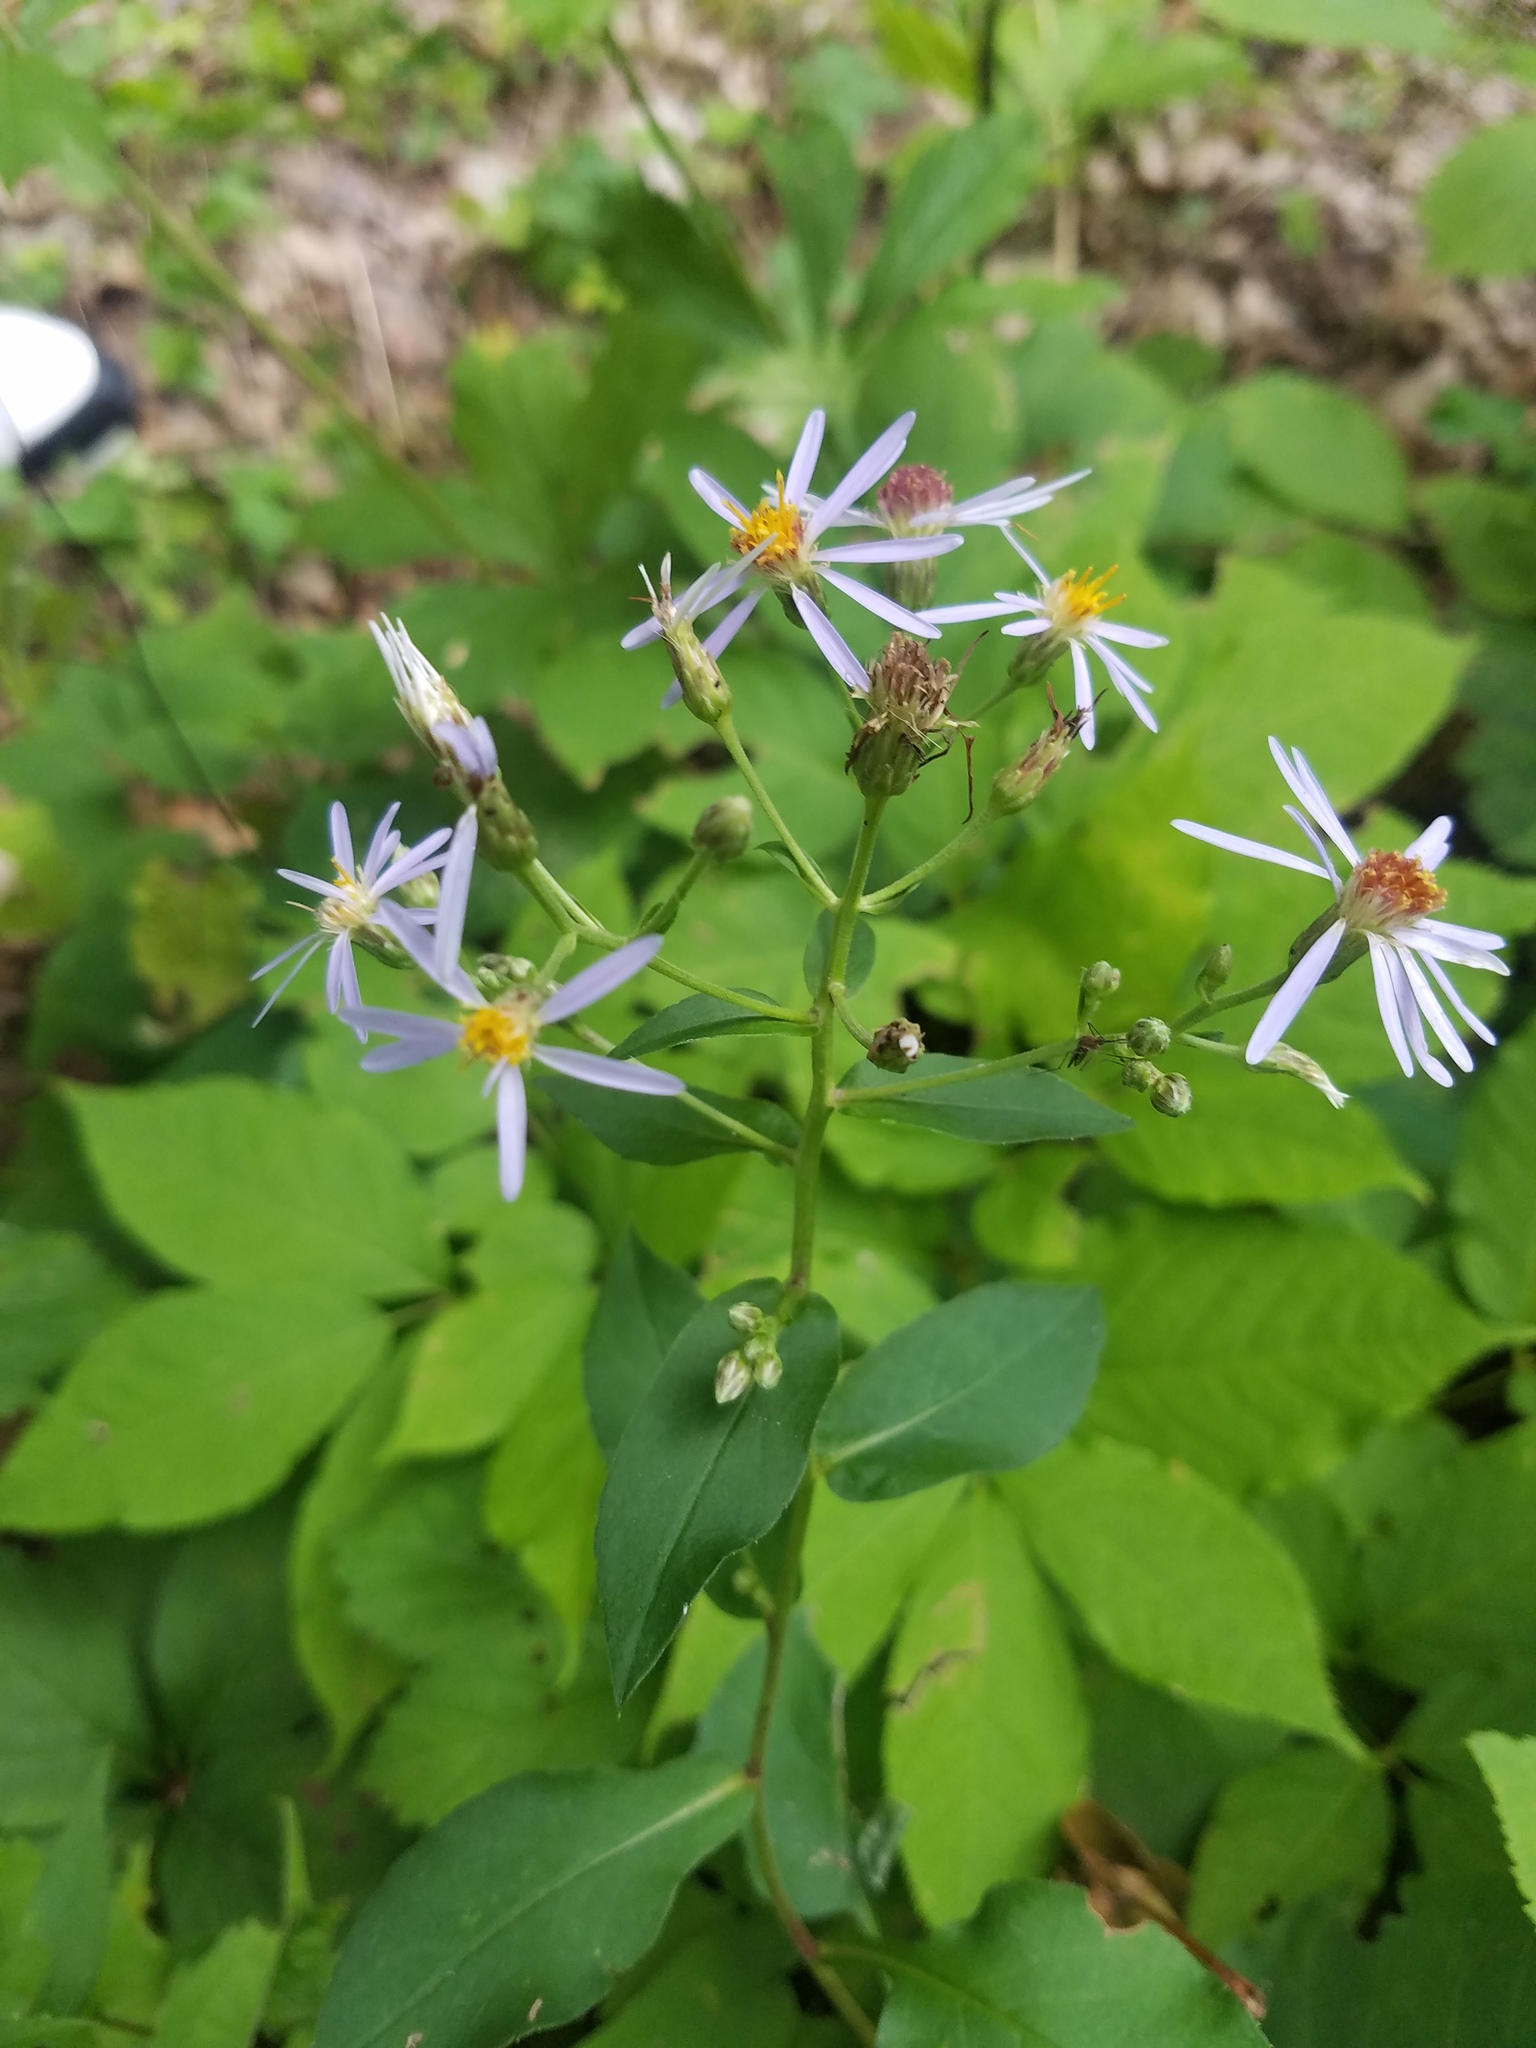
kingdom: Plantae
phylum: Tracheophyta
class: Magnoliopsida
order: Asterales
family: Asteraceae
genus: Eurybia
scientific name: Eurybia macrophylla
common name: Big-leaved aster
